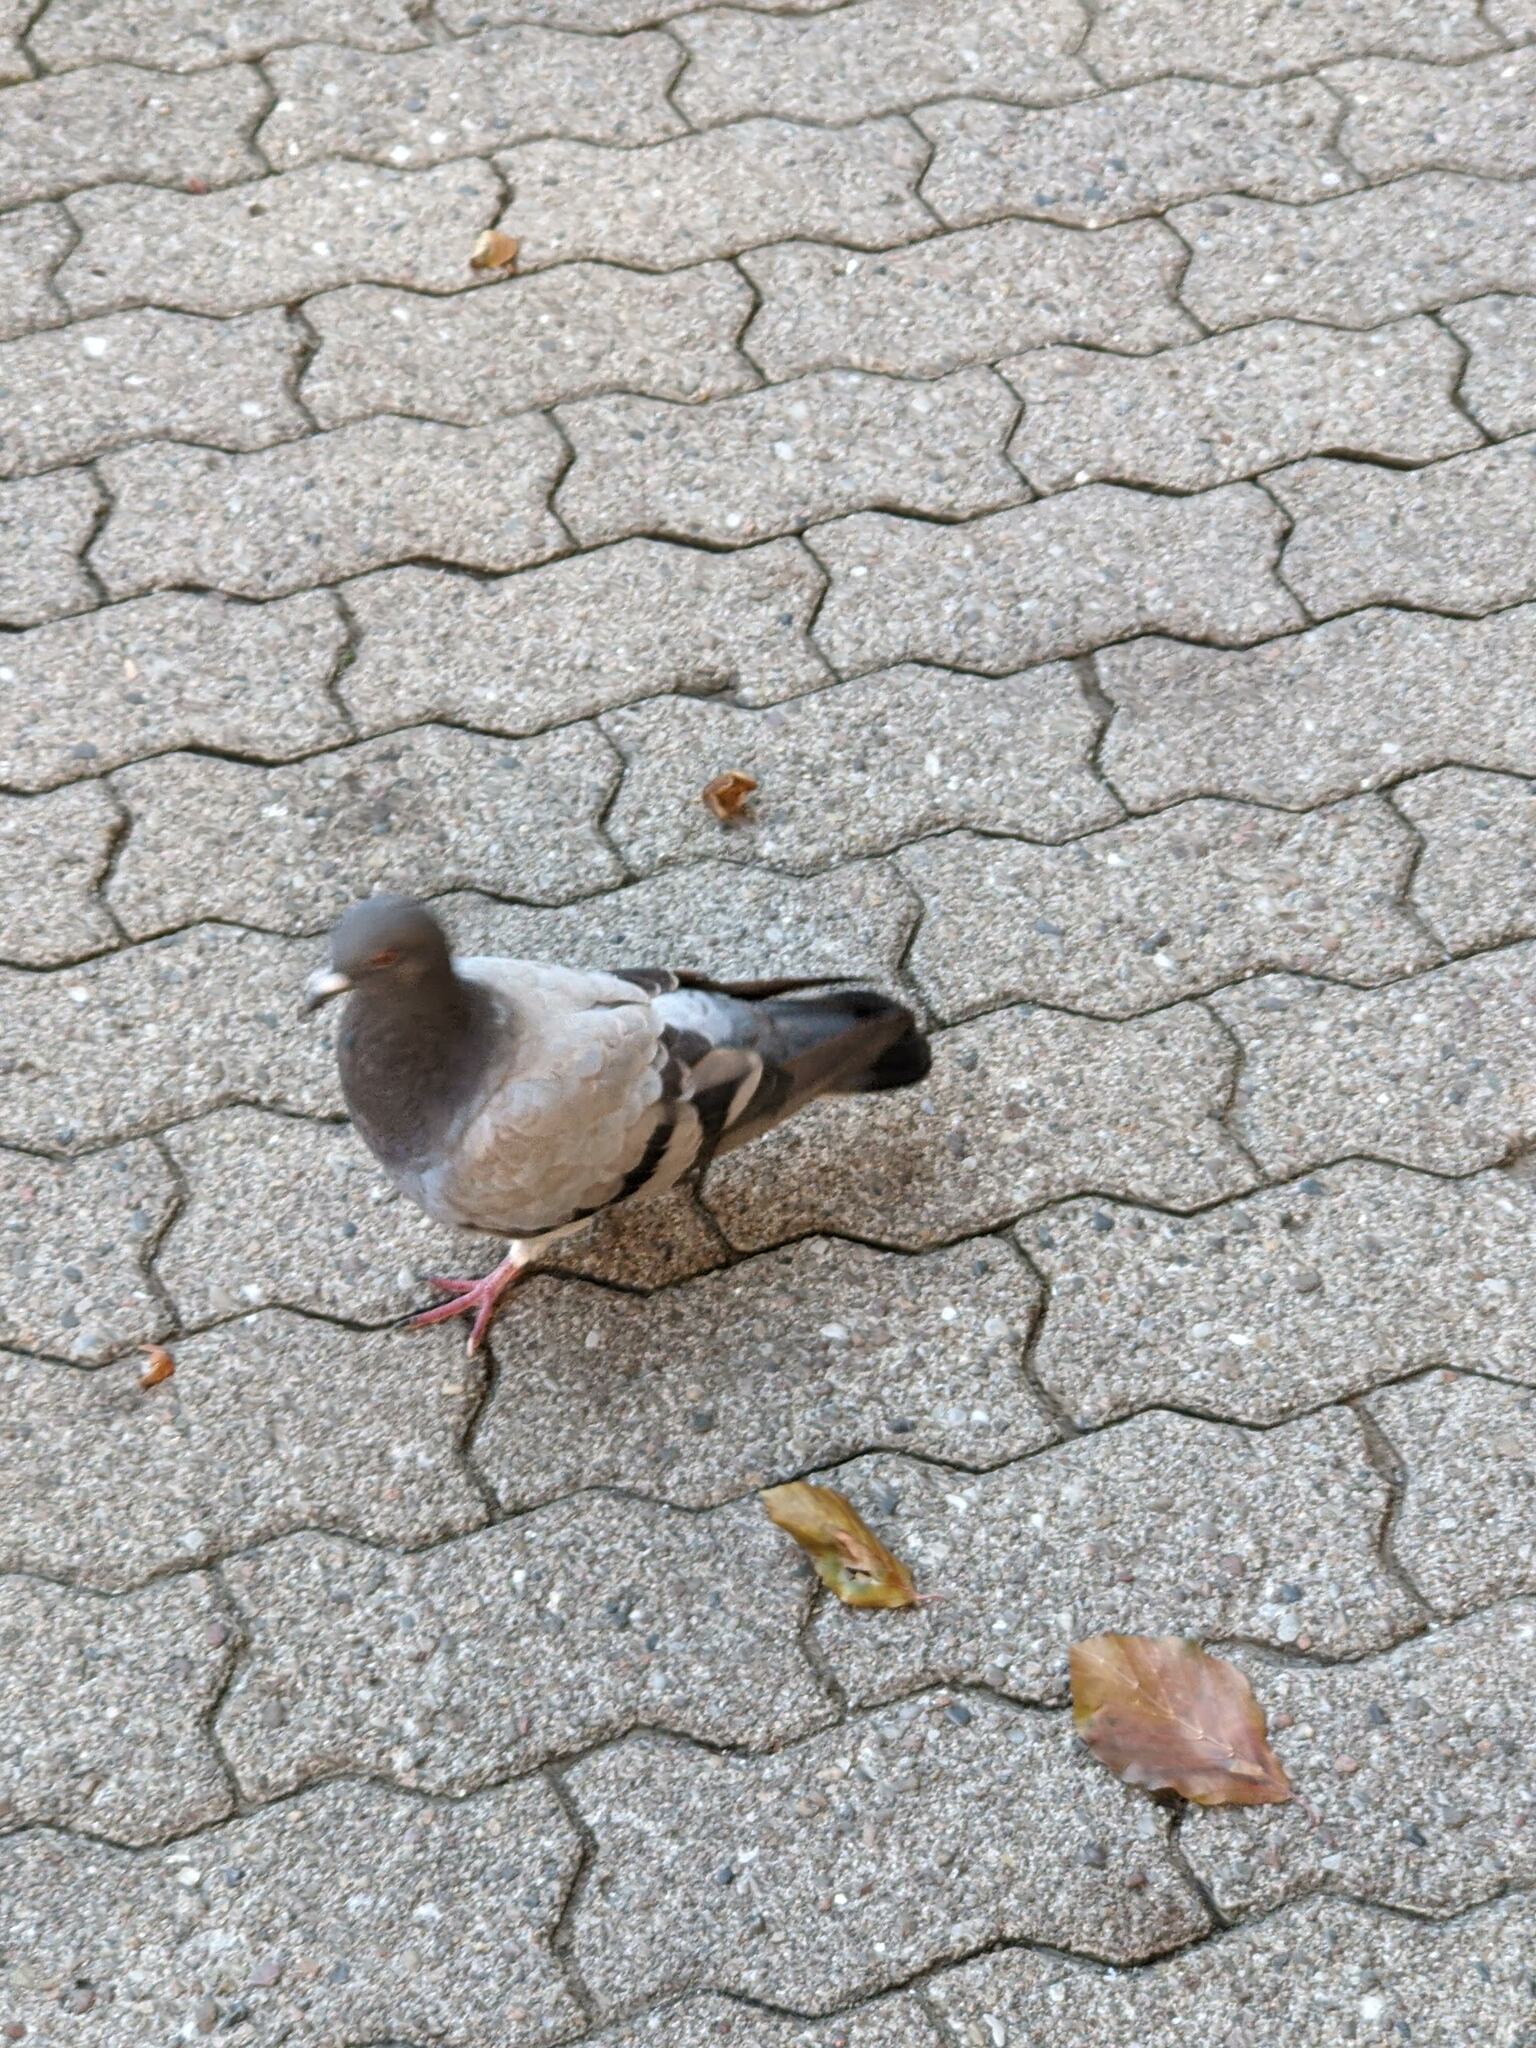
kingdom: Animalia
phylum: Chordata
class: Aves
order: Columbiformes
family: Columbidae
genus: Columba
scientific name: Columba livia
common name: Rock pigeon
